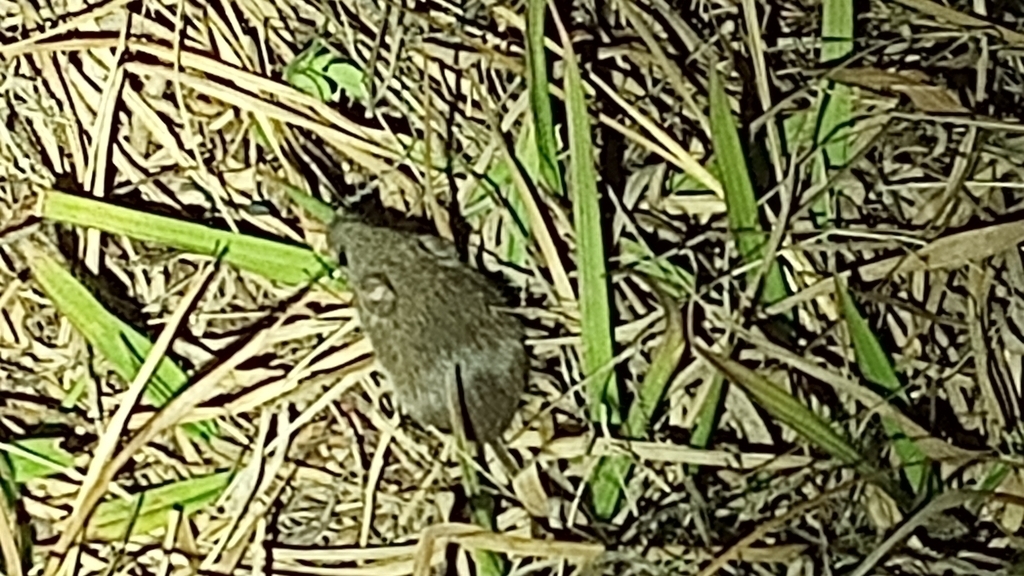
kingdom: Animalia
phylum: Chordata
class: Mammalia
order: Rodentia
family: Cricetidae
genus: Peromyscus
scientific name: Peromyscus maniculatus
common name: Deer mouse
